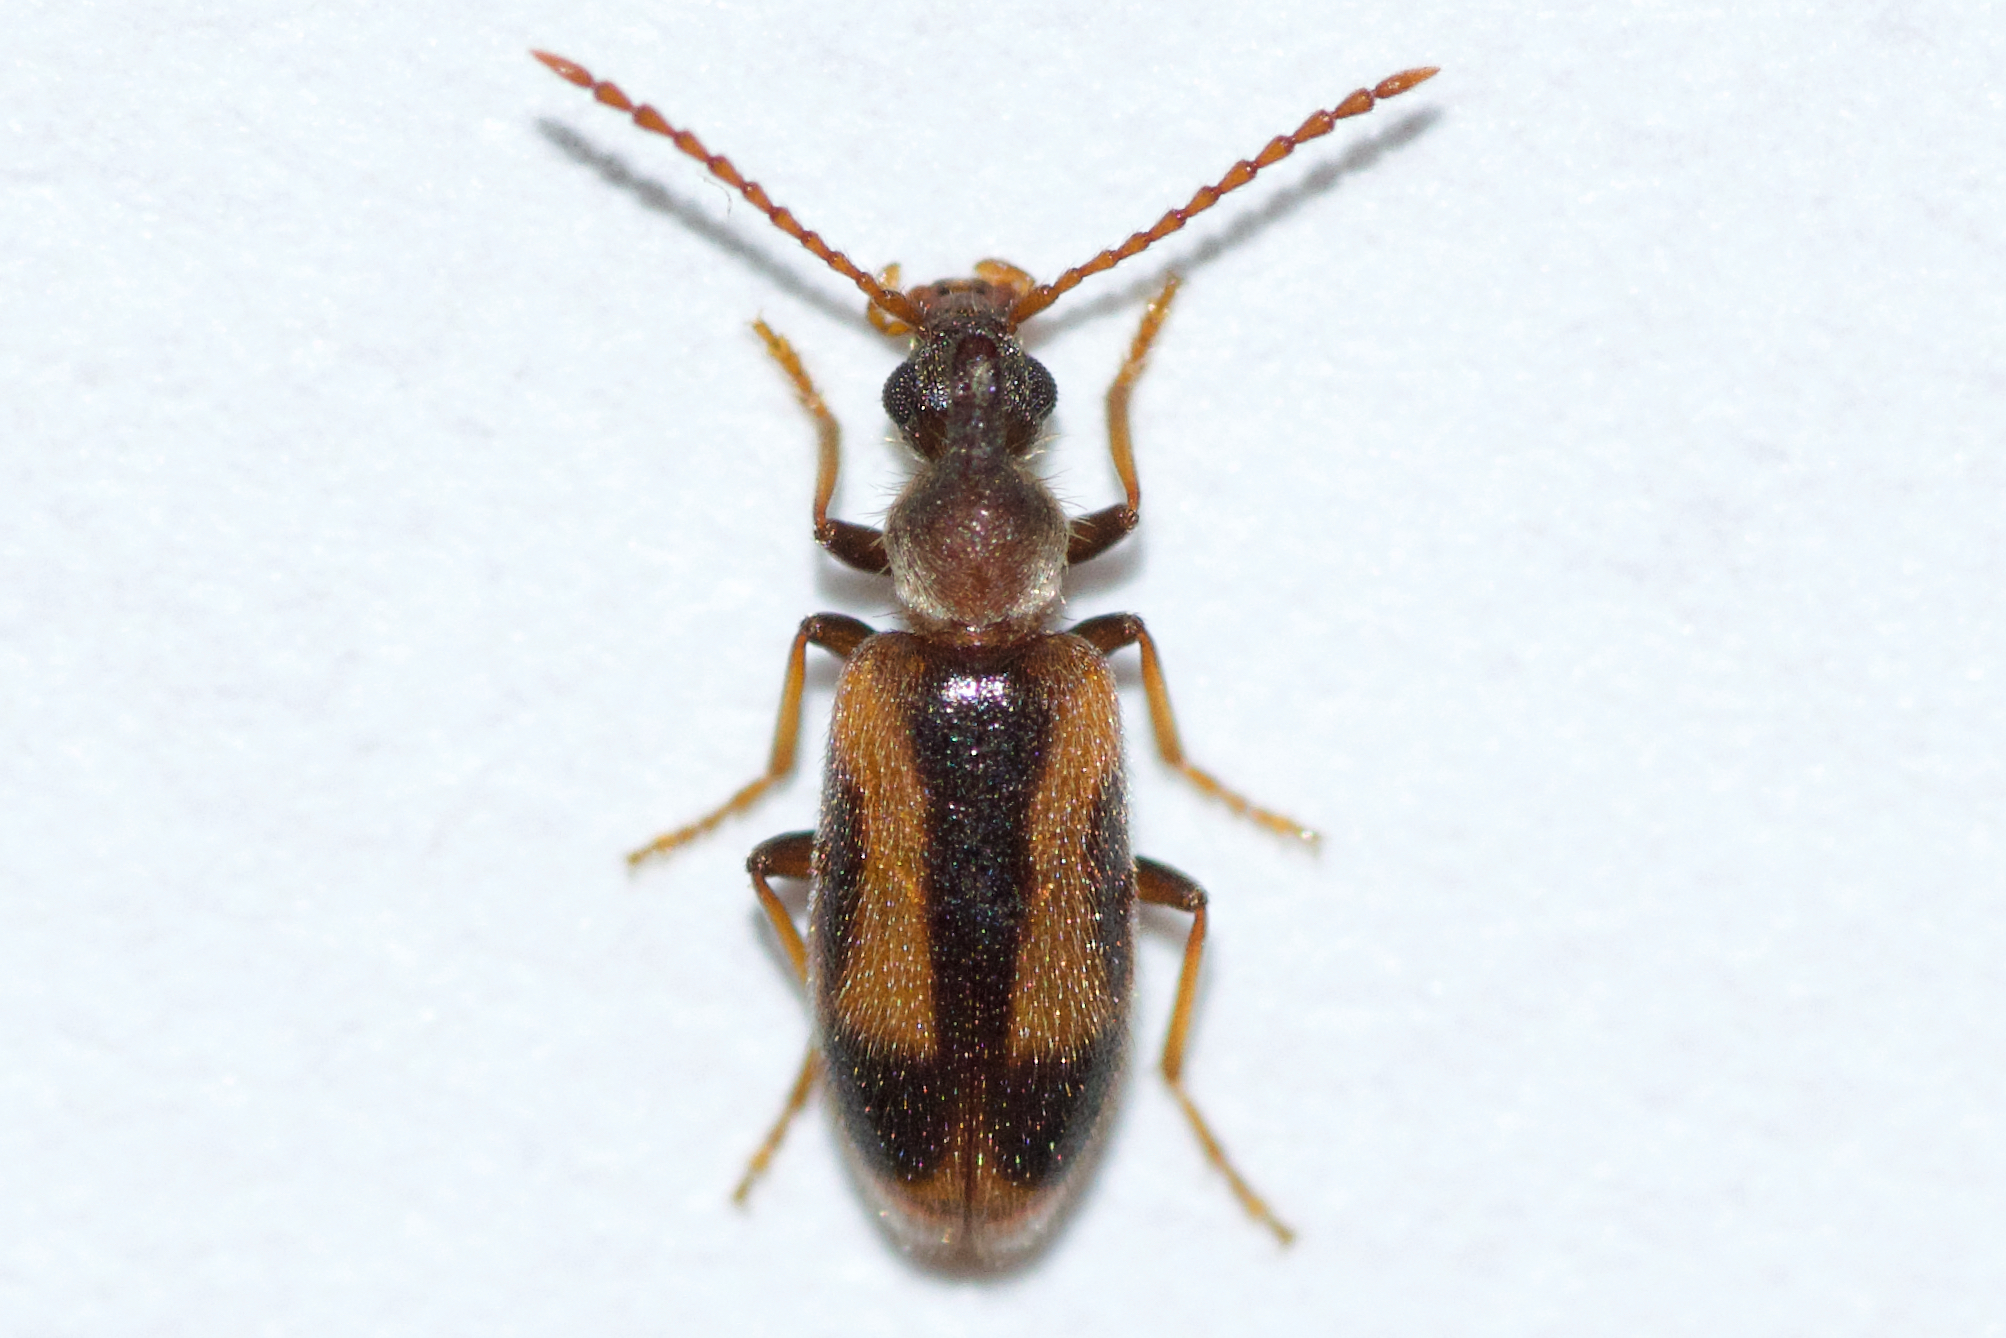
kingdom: Animalia
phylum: Arthropoda
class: Insecta
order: Coleoptera
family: Anthicidae
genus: Notoxus
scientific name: Notoxus anchora
